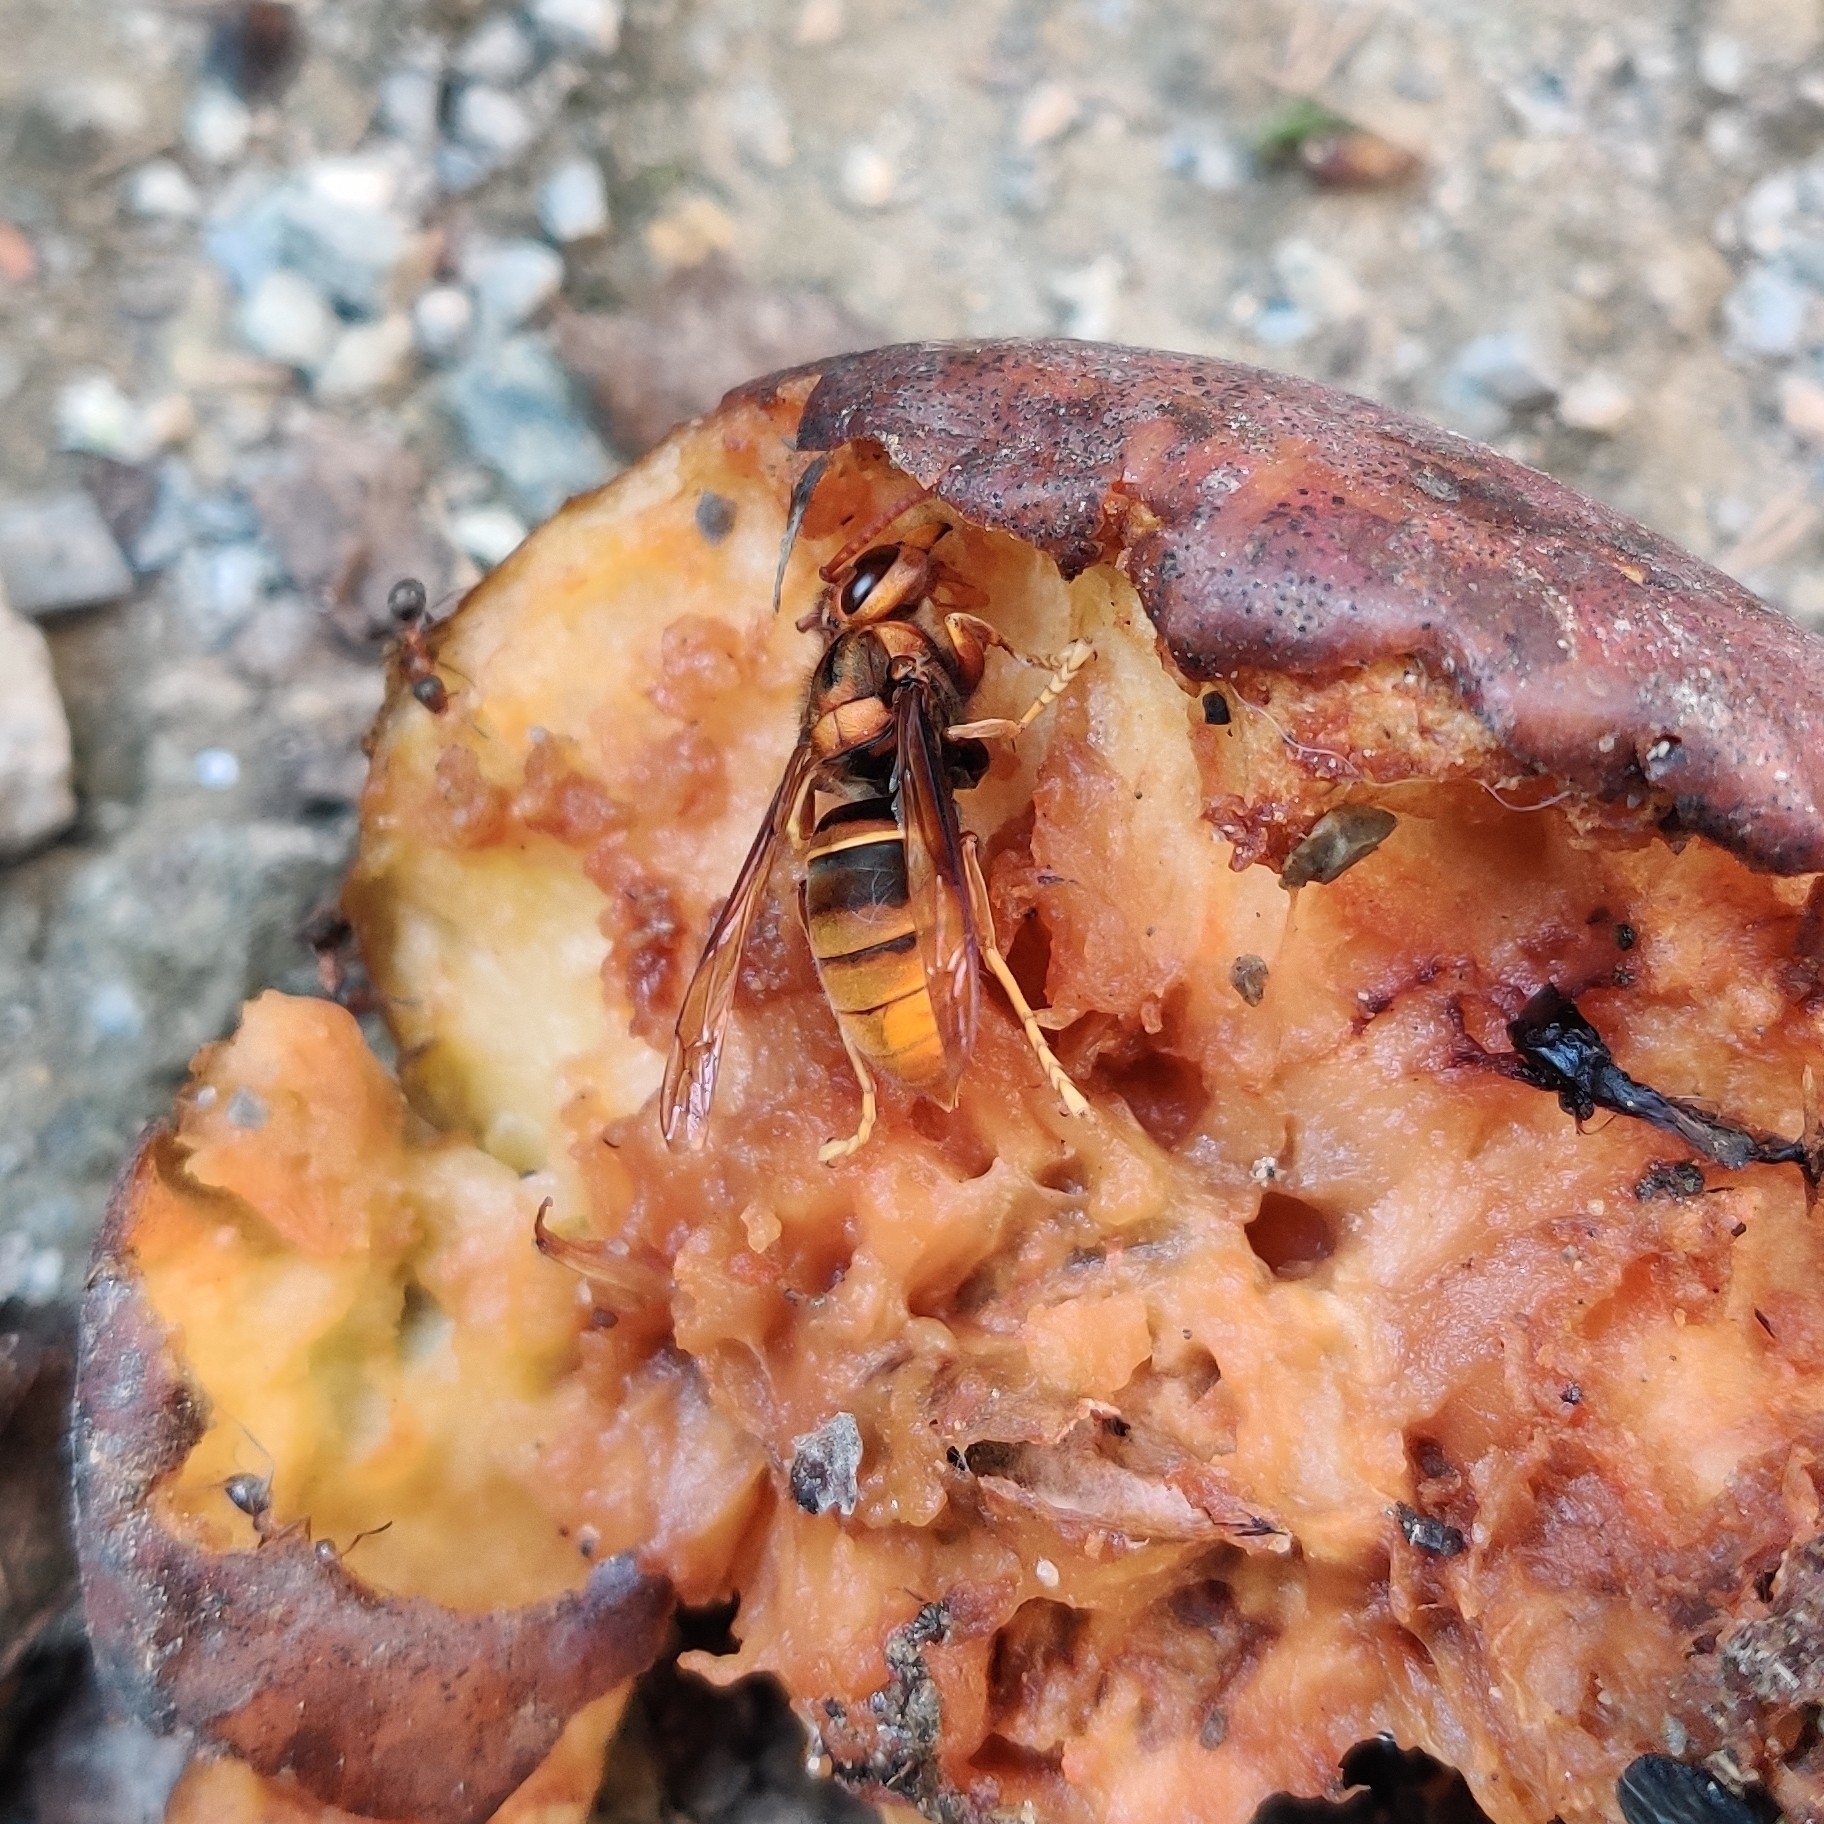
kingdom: Animalia
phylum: Arthropoda
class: Insecta
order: Hymenoptera
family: Vespidae
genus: Vespa
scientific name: Vespa velutina
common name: Asian hornet
